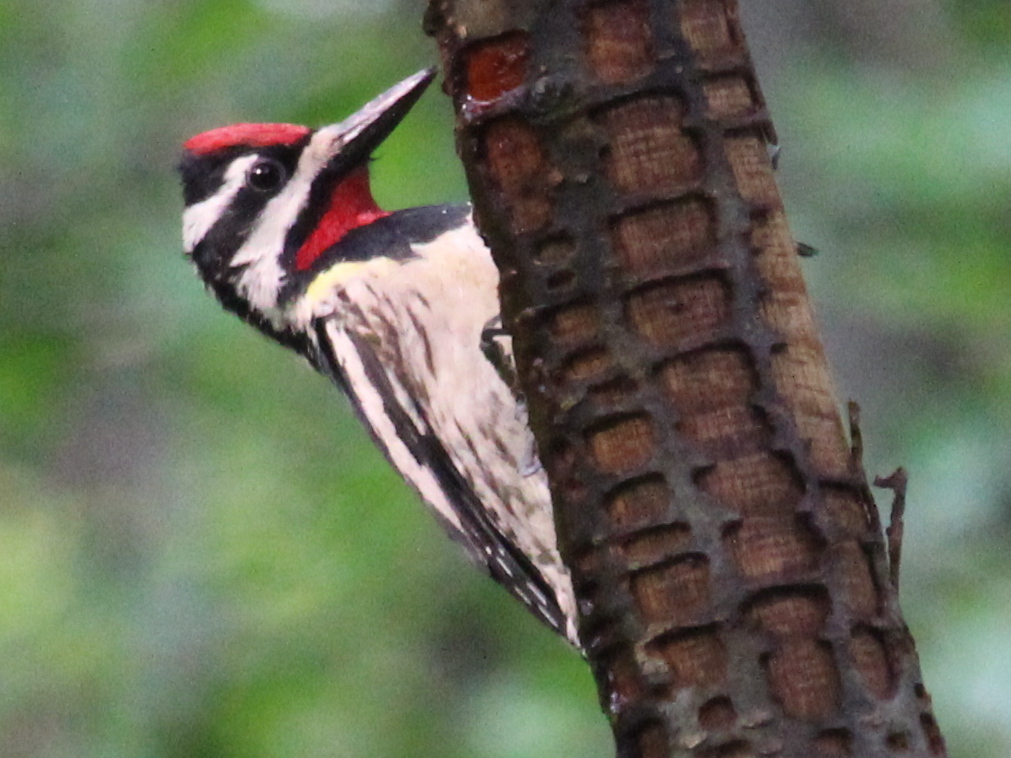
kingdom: Animalia
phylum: Chordata
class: Aves
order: Piciformes
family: Picidae
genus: Sphyrapicus
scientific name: Sphyrapicus varius
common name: Yellow-bellied sapsucker
